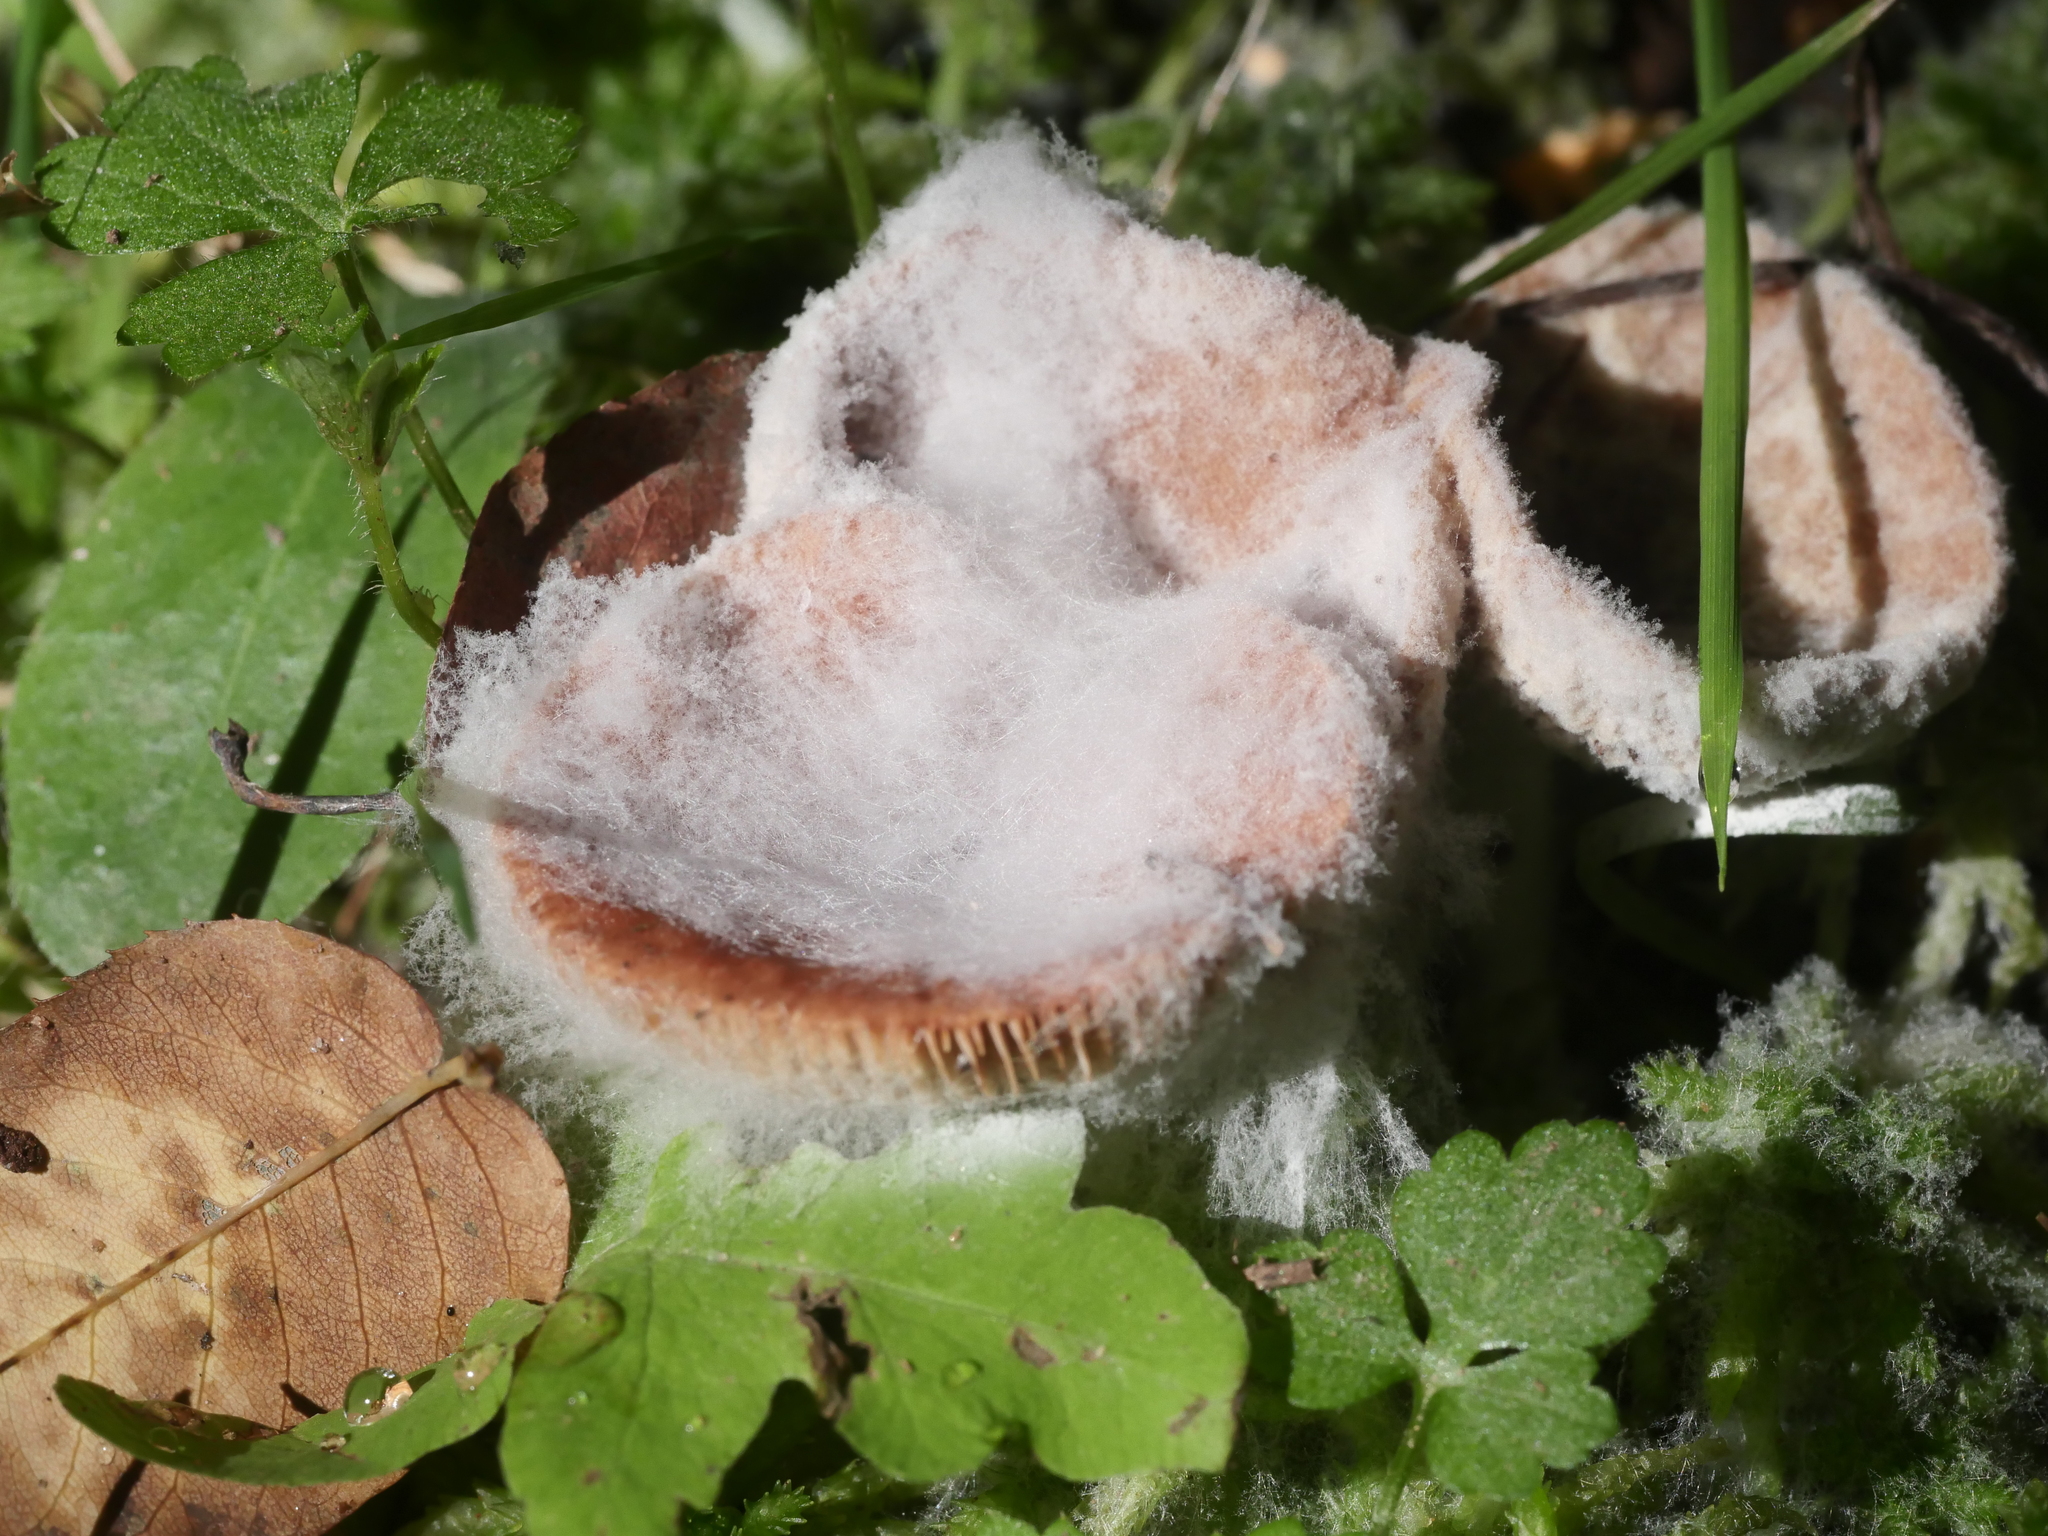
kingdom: Fungi
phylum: Mucoromycota
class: Mucoromycetes
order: Mucorales
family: Rhizopodaceae
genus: Syzygites
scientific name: Syzygites megalocarpus
